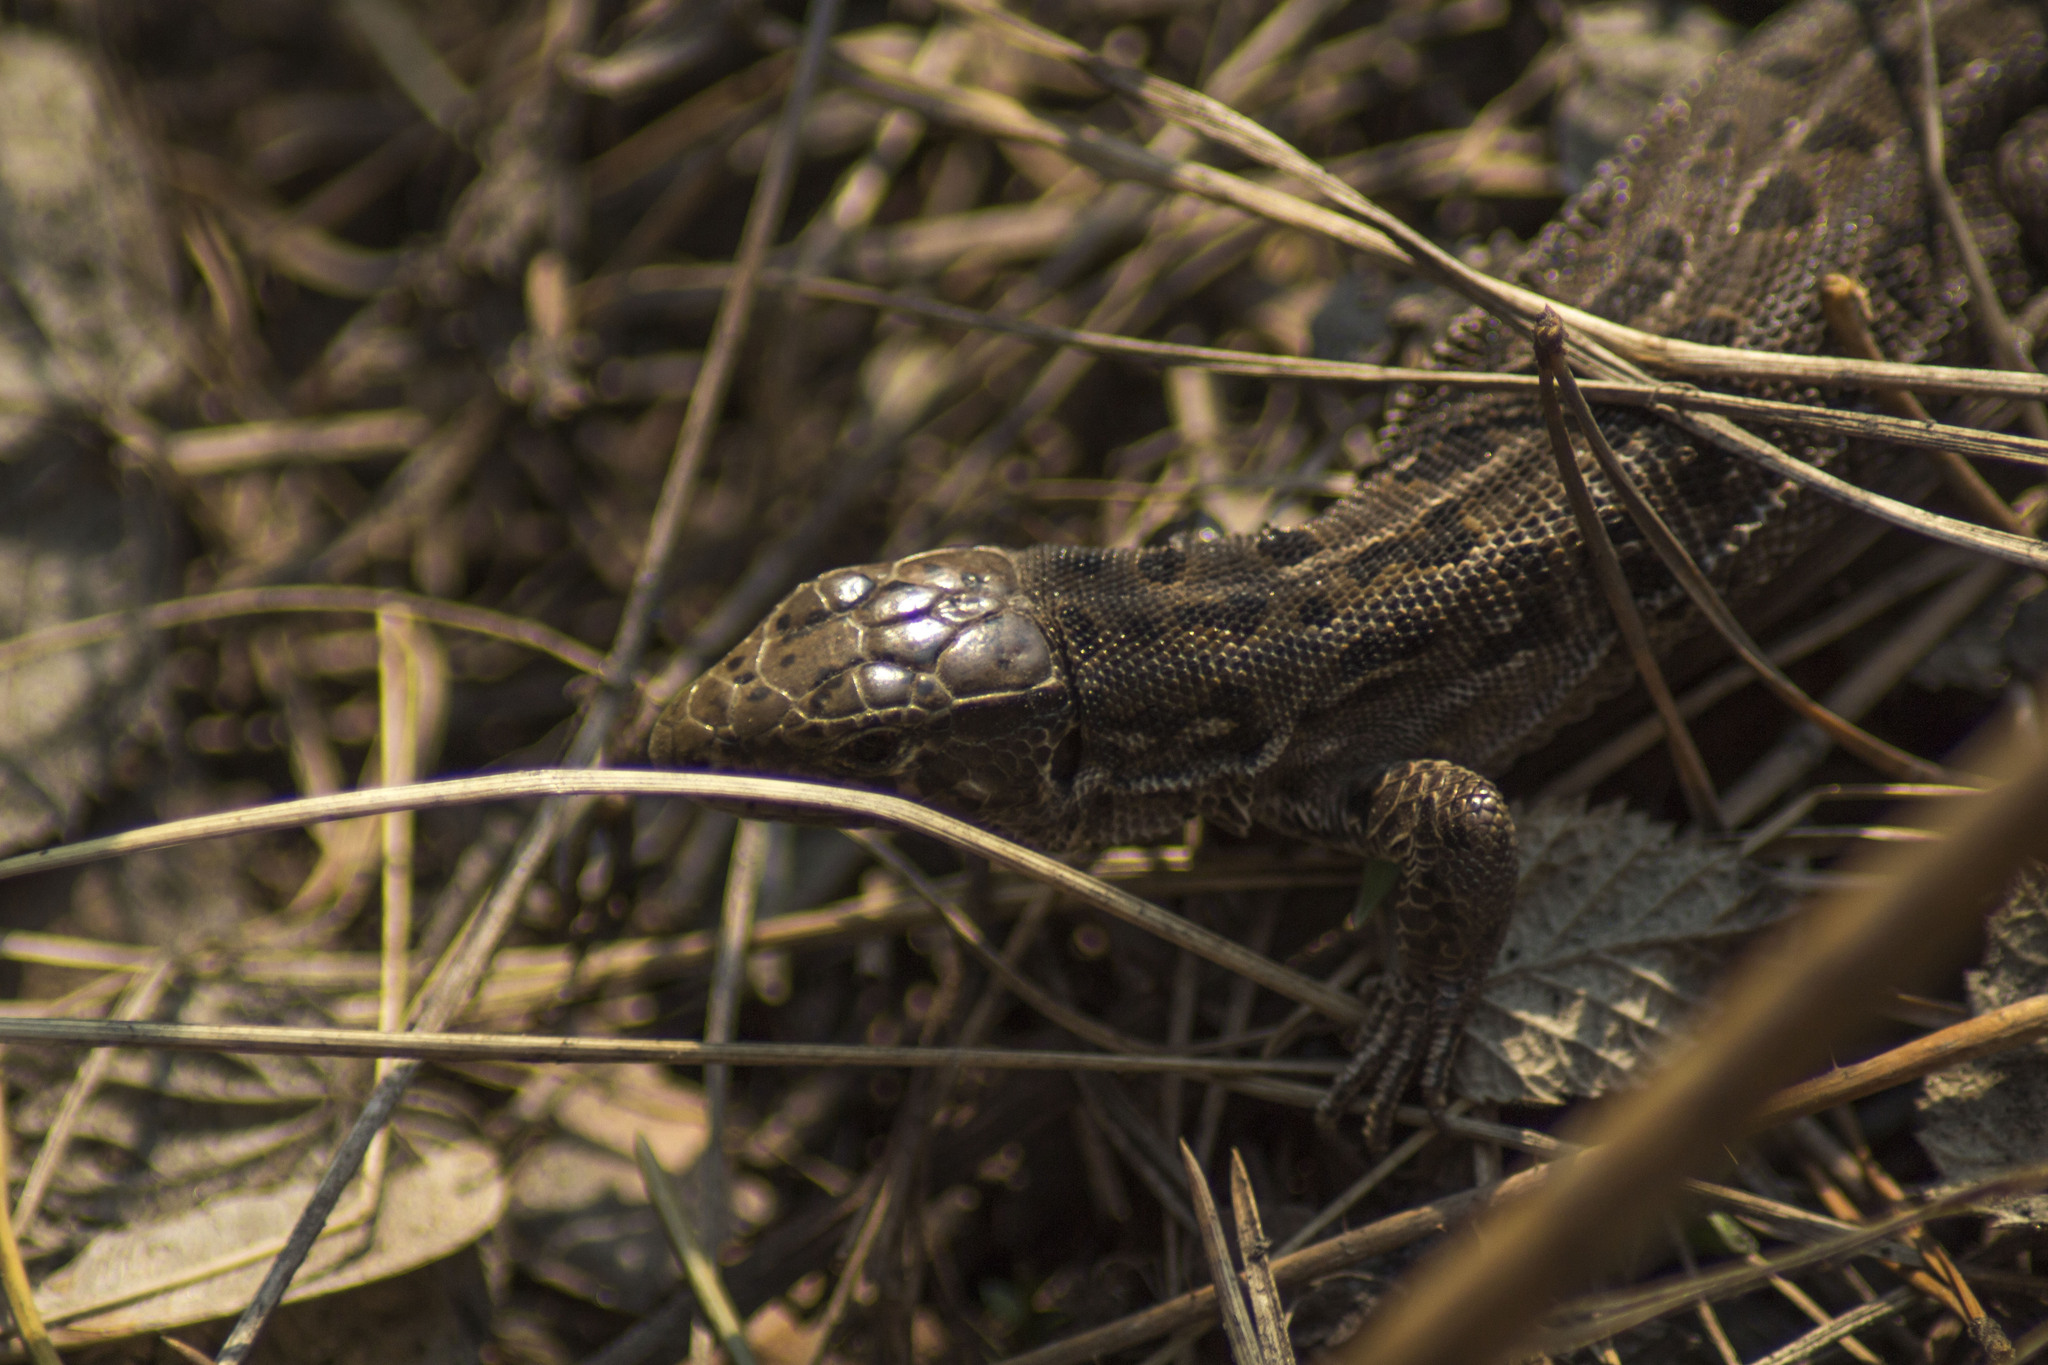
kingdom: Animalia
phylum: Chordata
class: Squamata
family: Lacertidae
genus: Lacerta
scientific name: Lacerta agilis
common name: Sand lizard
